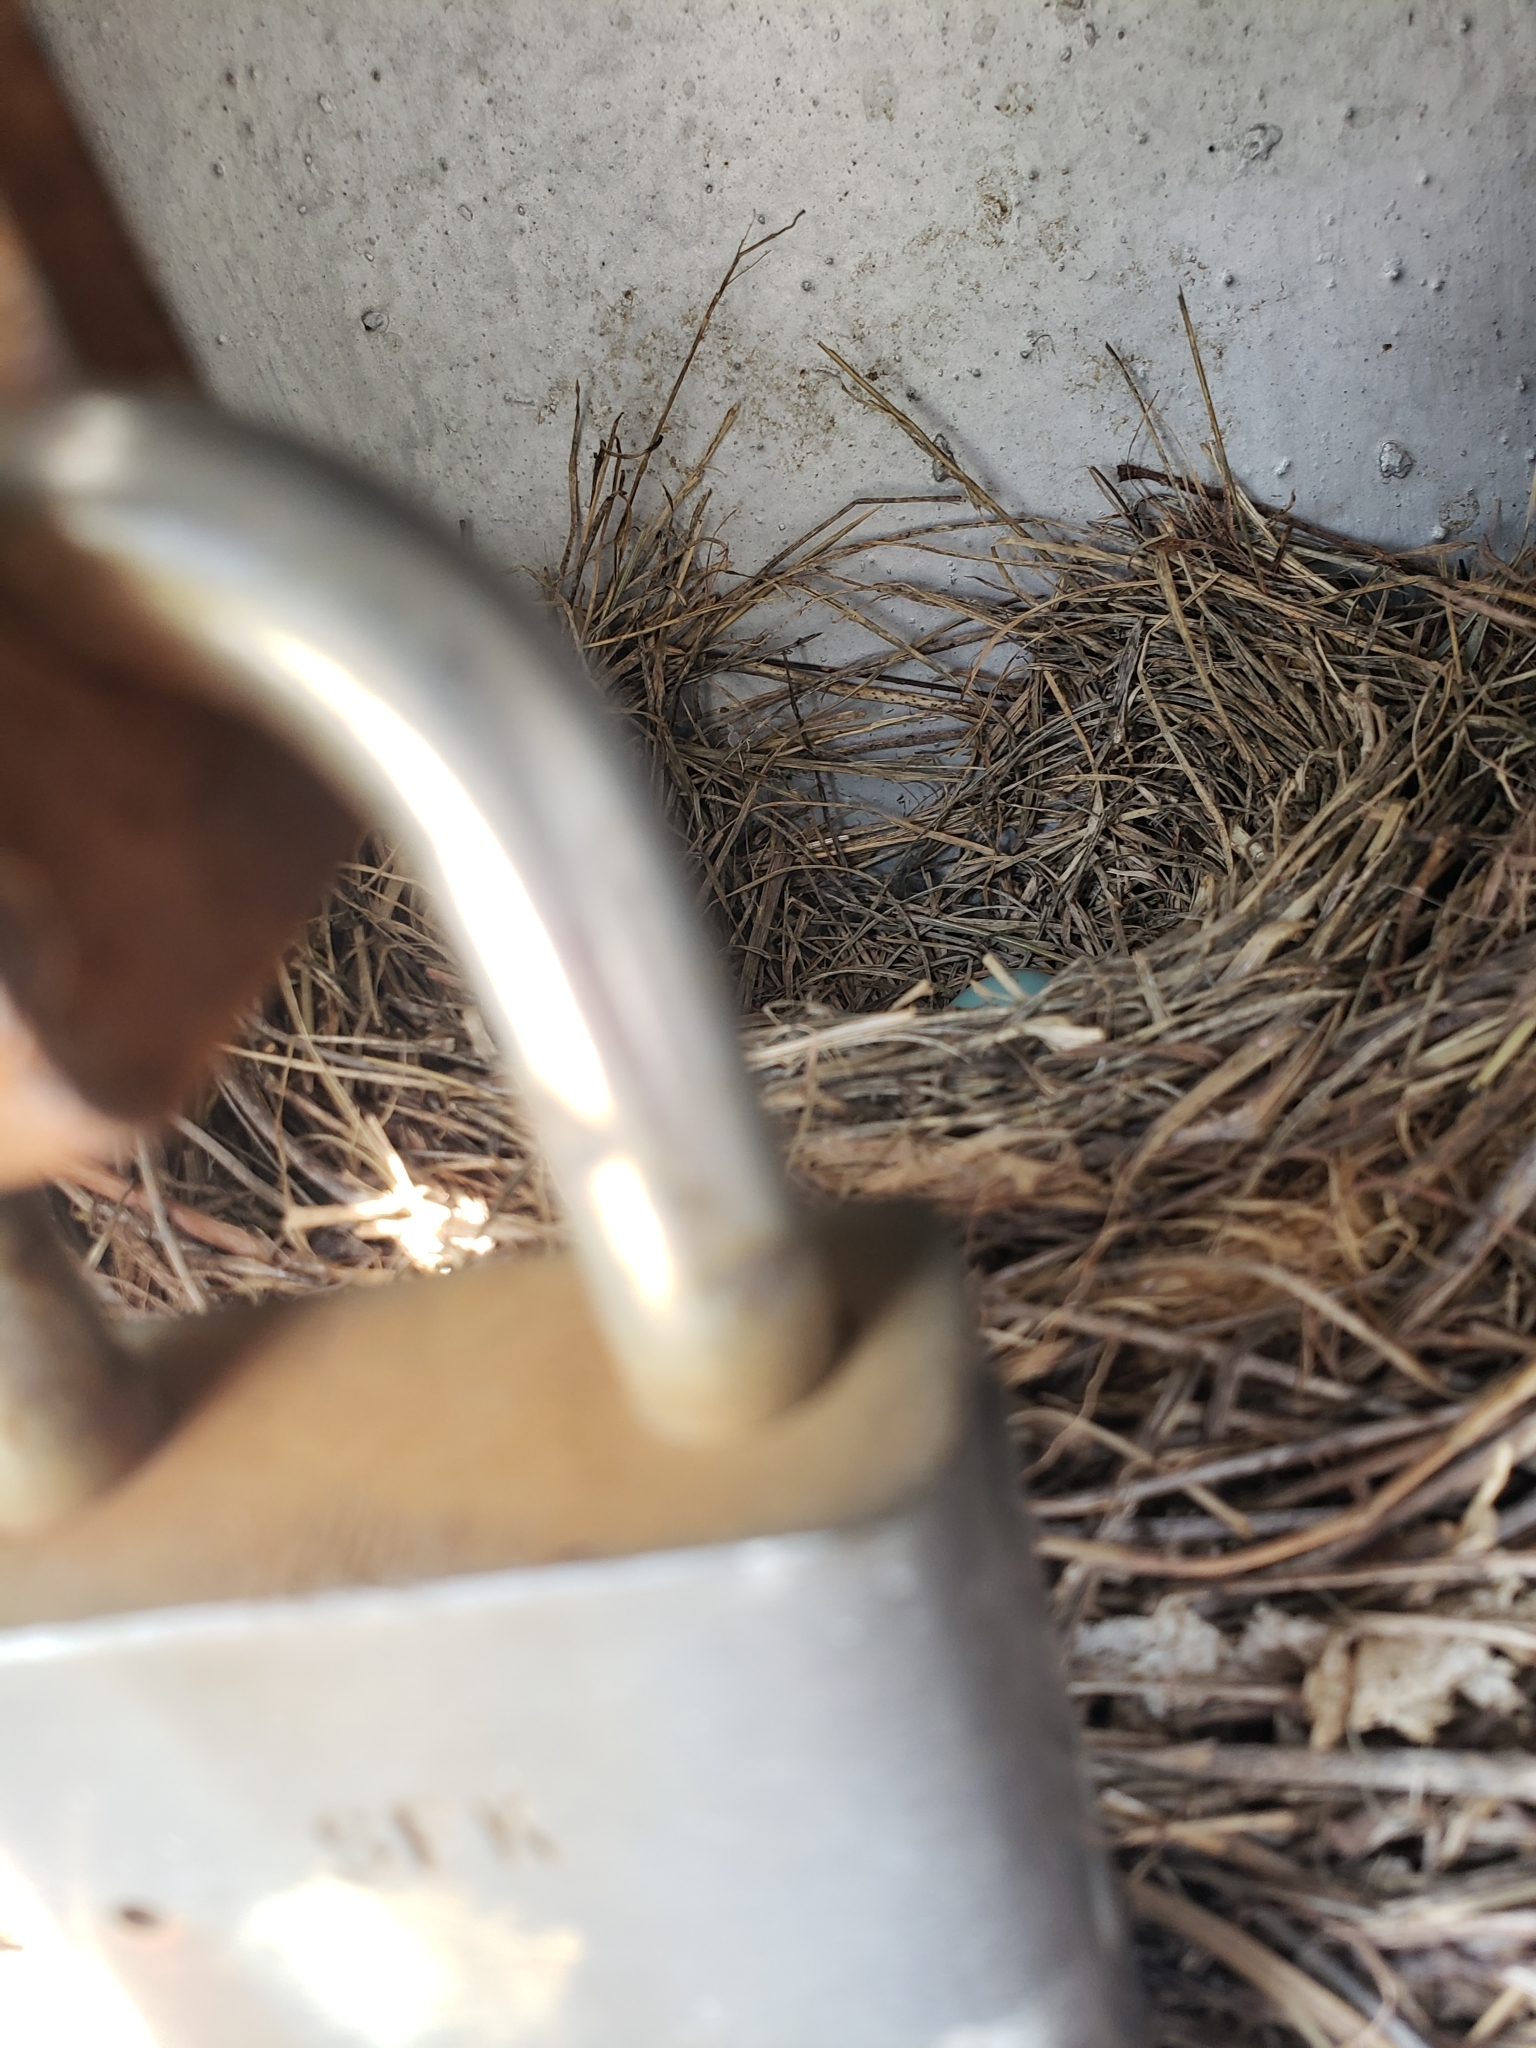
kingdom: Animalia
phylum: Chordata
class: Aves
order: Passeriformes
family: Turdidae
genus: Sialia
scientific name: Sialia sialis
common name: Eastern bluebird
